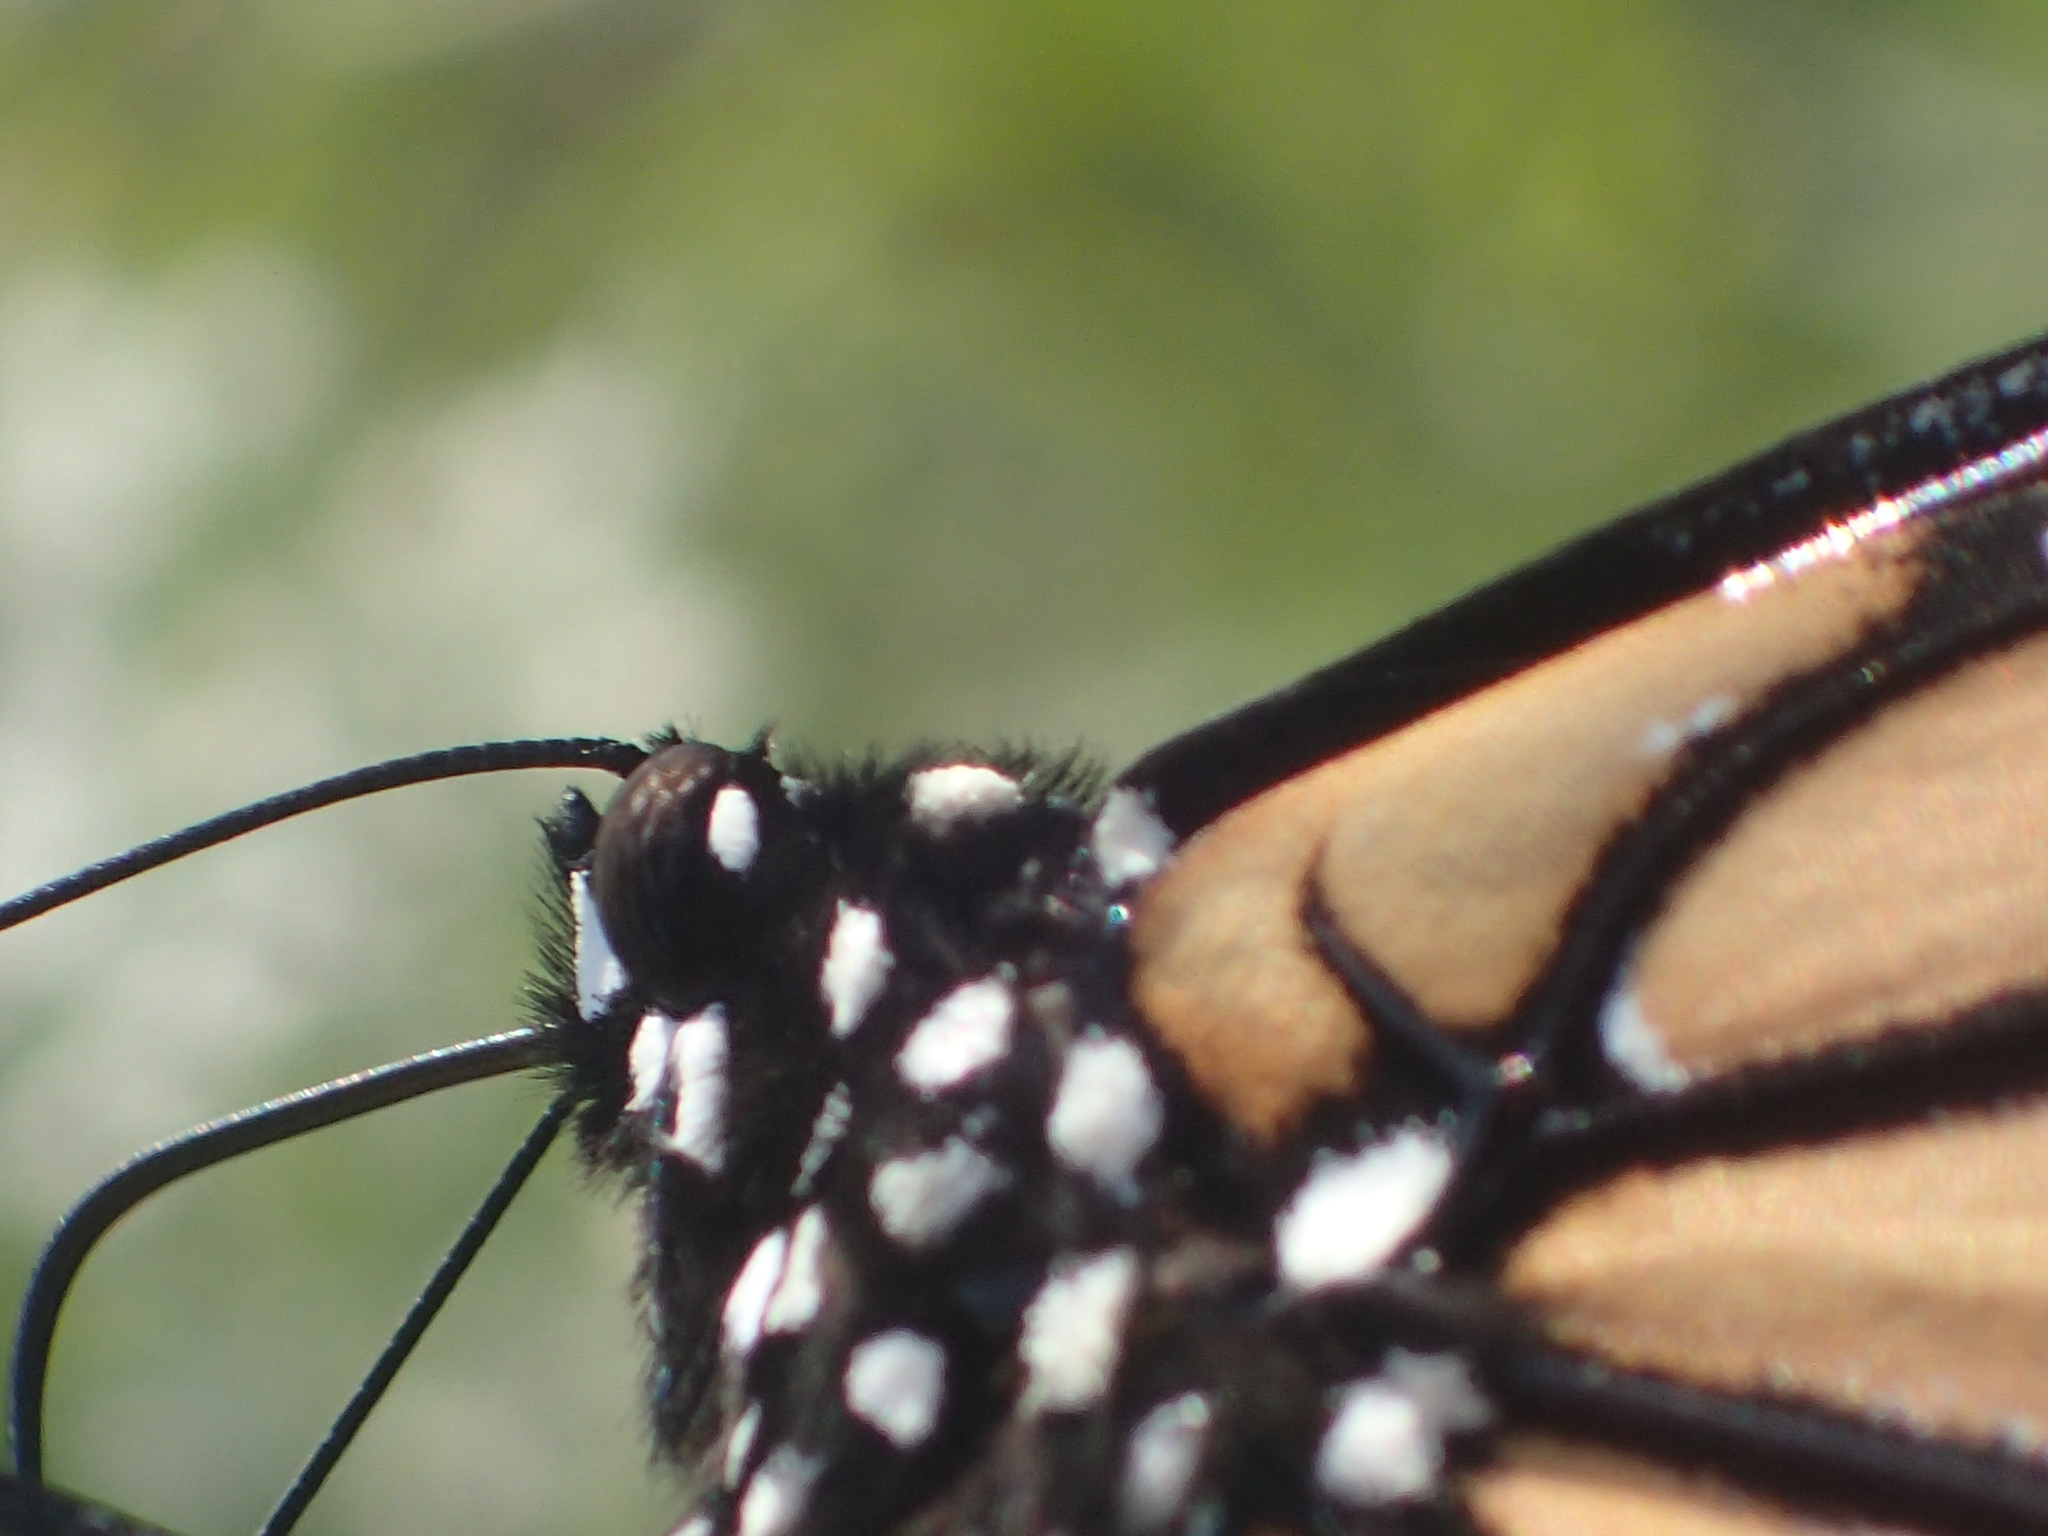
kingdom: Animalia
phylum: Arthropoda
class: Insecta
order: Lepidoptera
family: Nymphalidae
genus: Danaus
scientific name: Danaus plexippus
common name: Monarch
